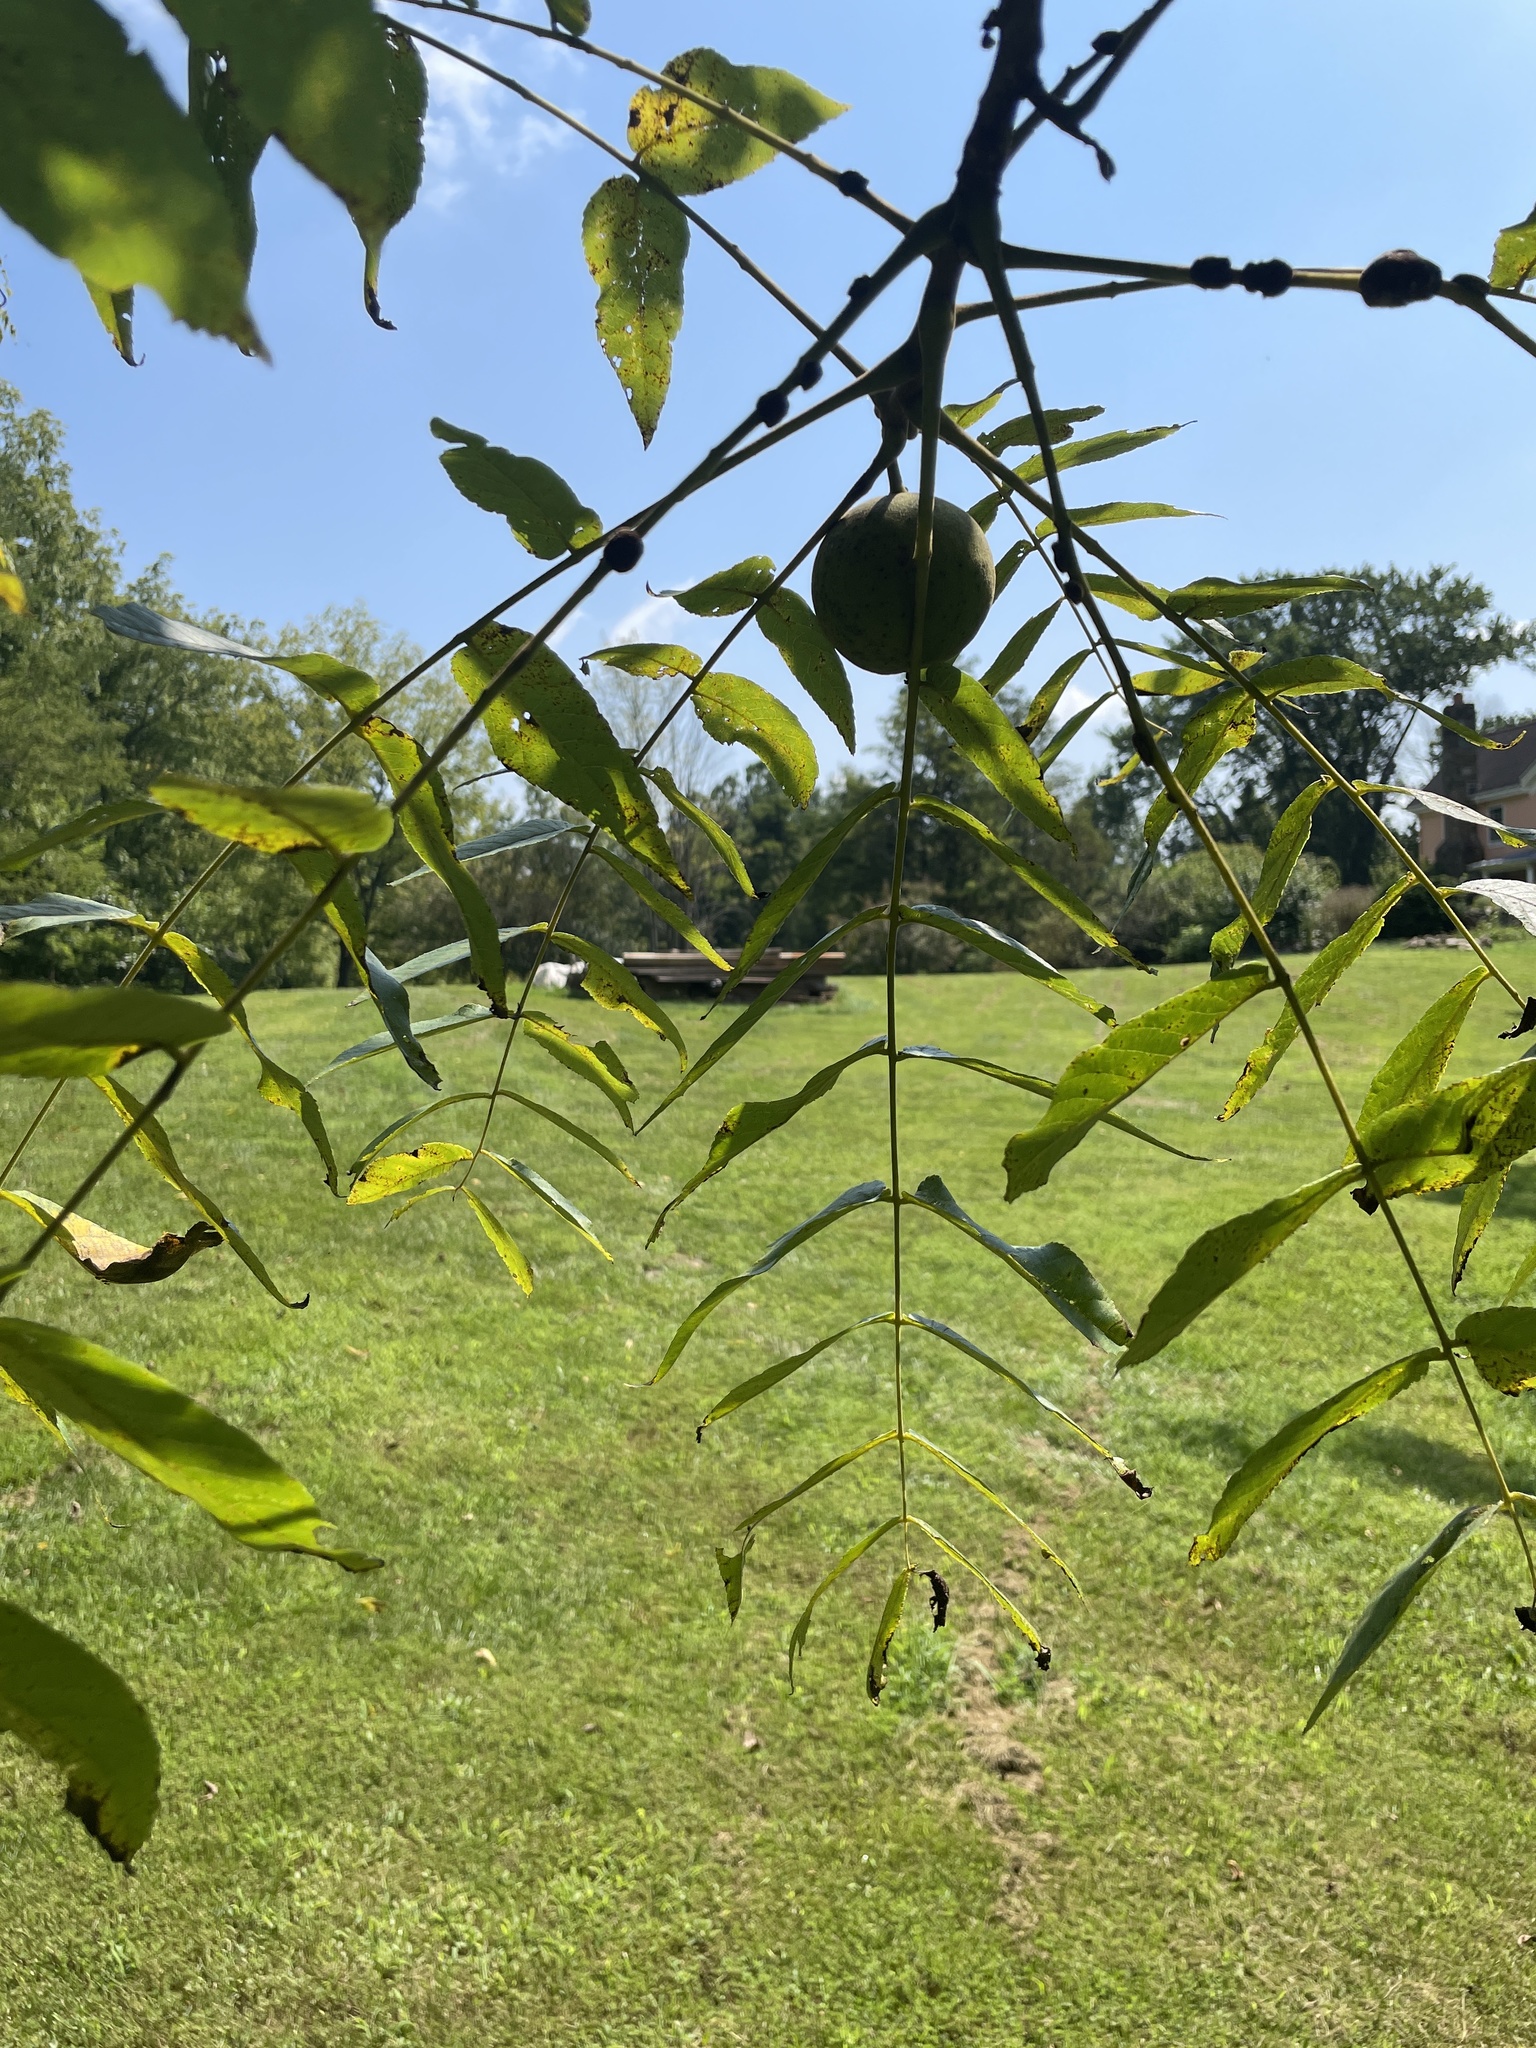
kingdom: Plantae
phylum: Tracheophyta
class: Magnoliopsida
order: Fagales
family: Juglandaceae
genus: Juglans
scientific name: Juglans nigra
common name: Black walnut
